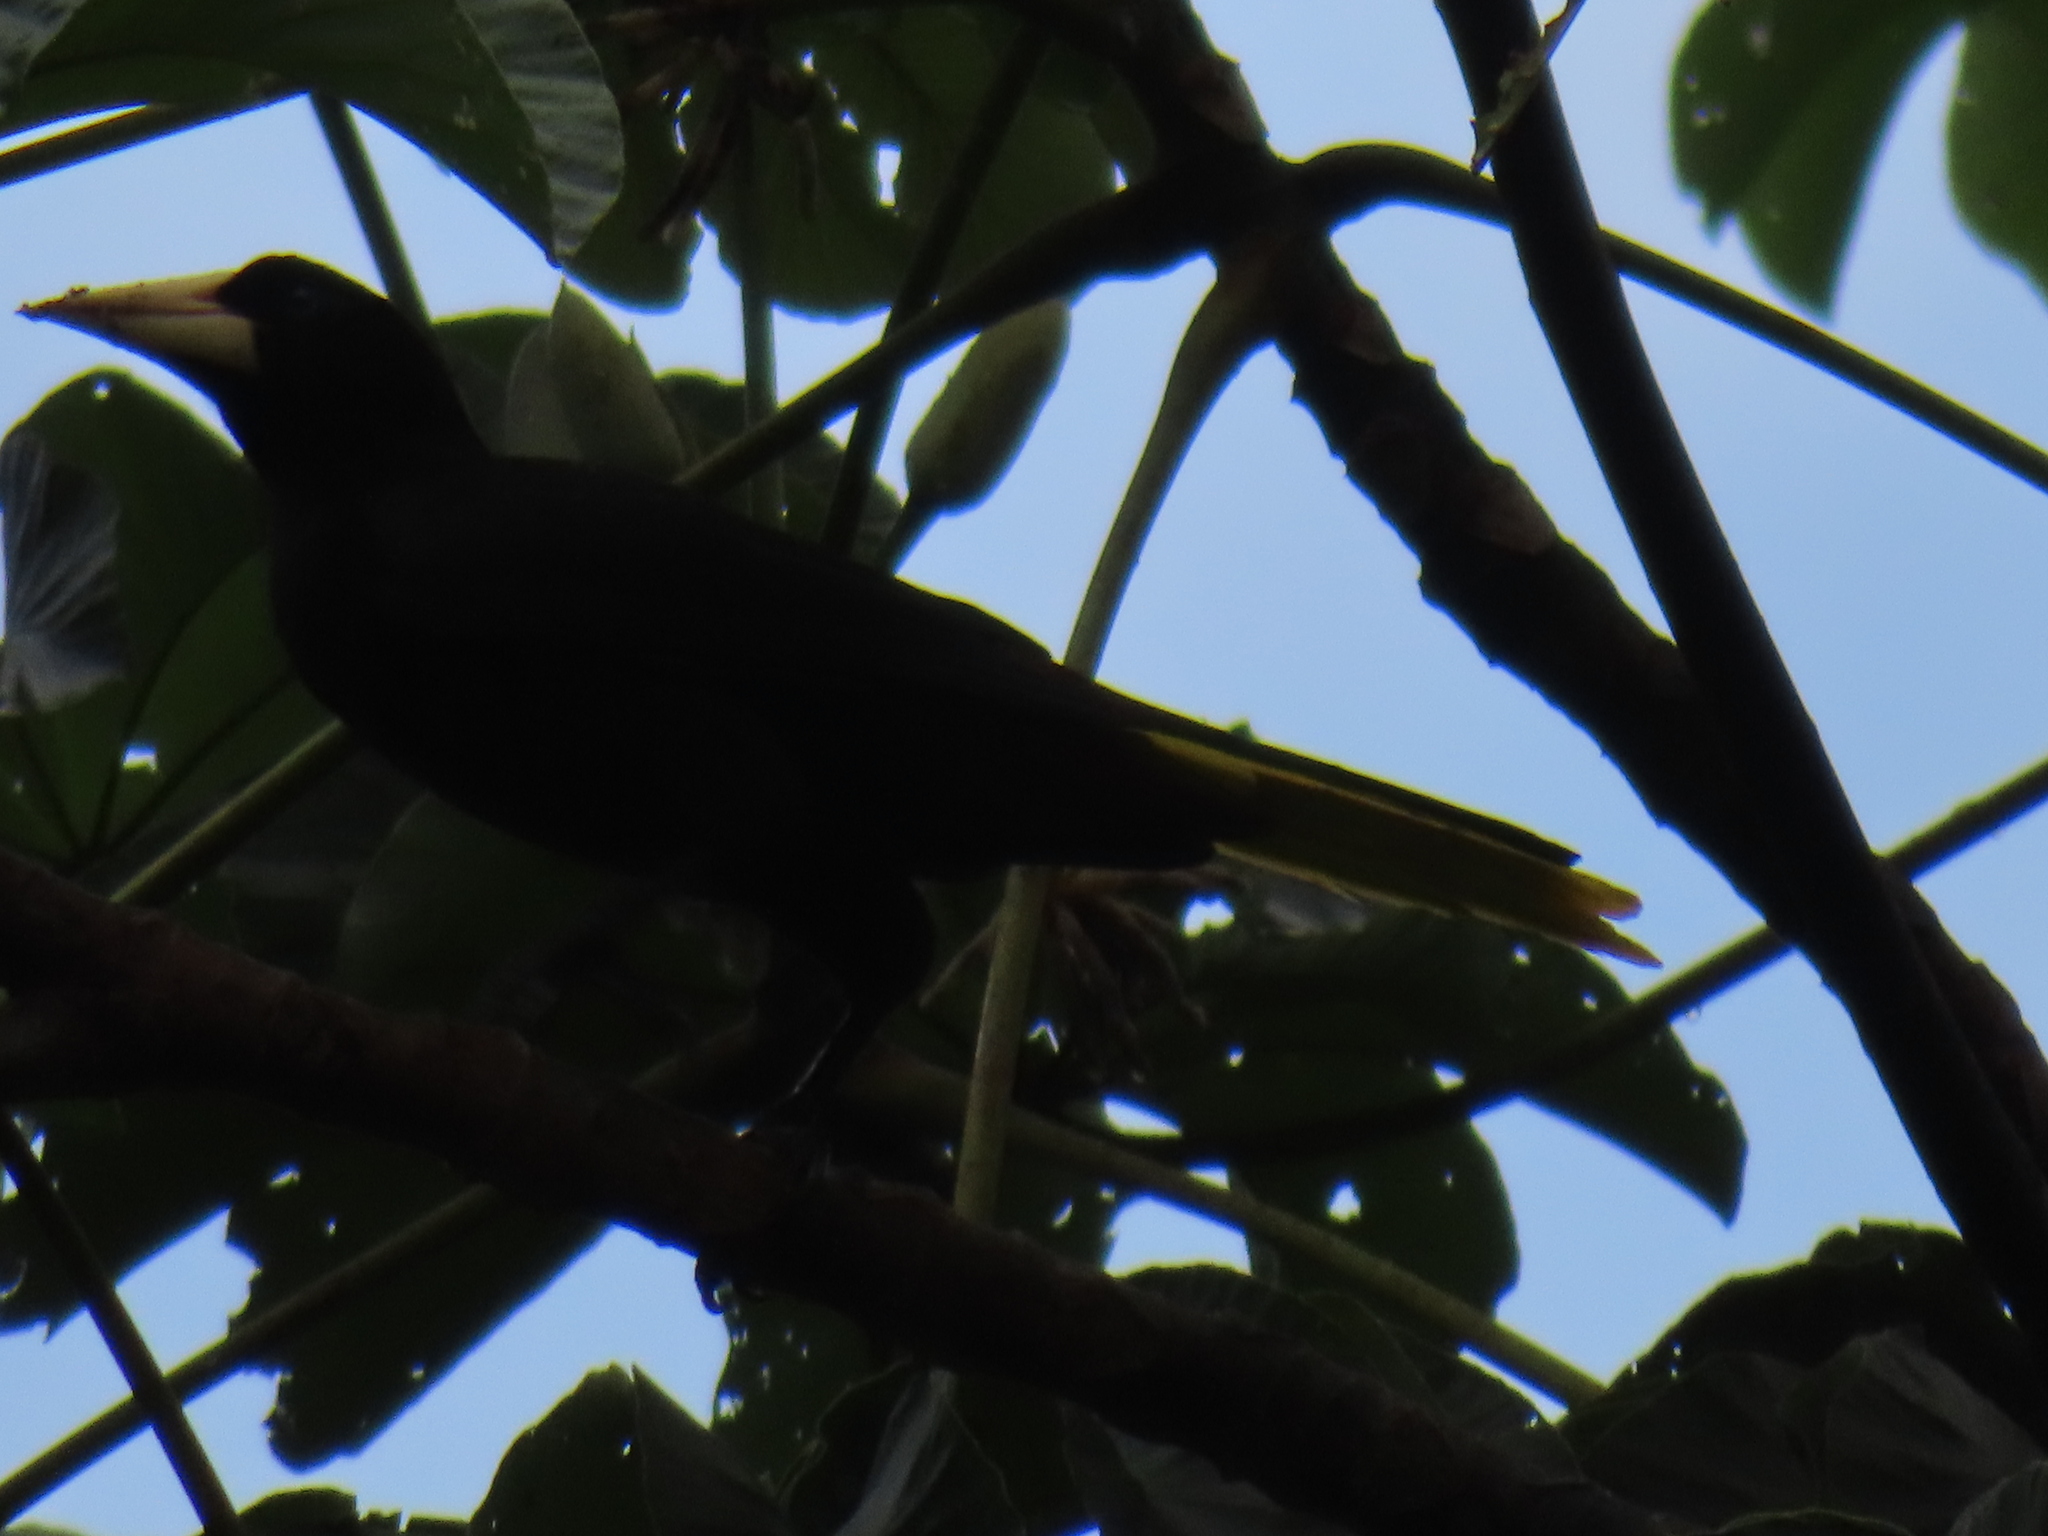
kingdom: Animalia
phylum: Chordata
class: Aves
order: Passeriformes
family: Icteridae
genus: Psarocolius
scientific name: Psarocolius decumanus
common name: Crested oropendola
